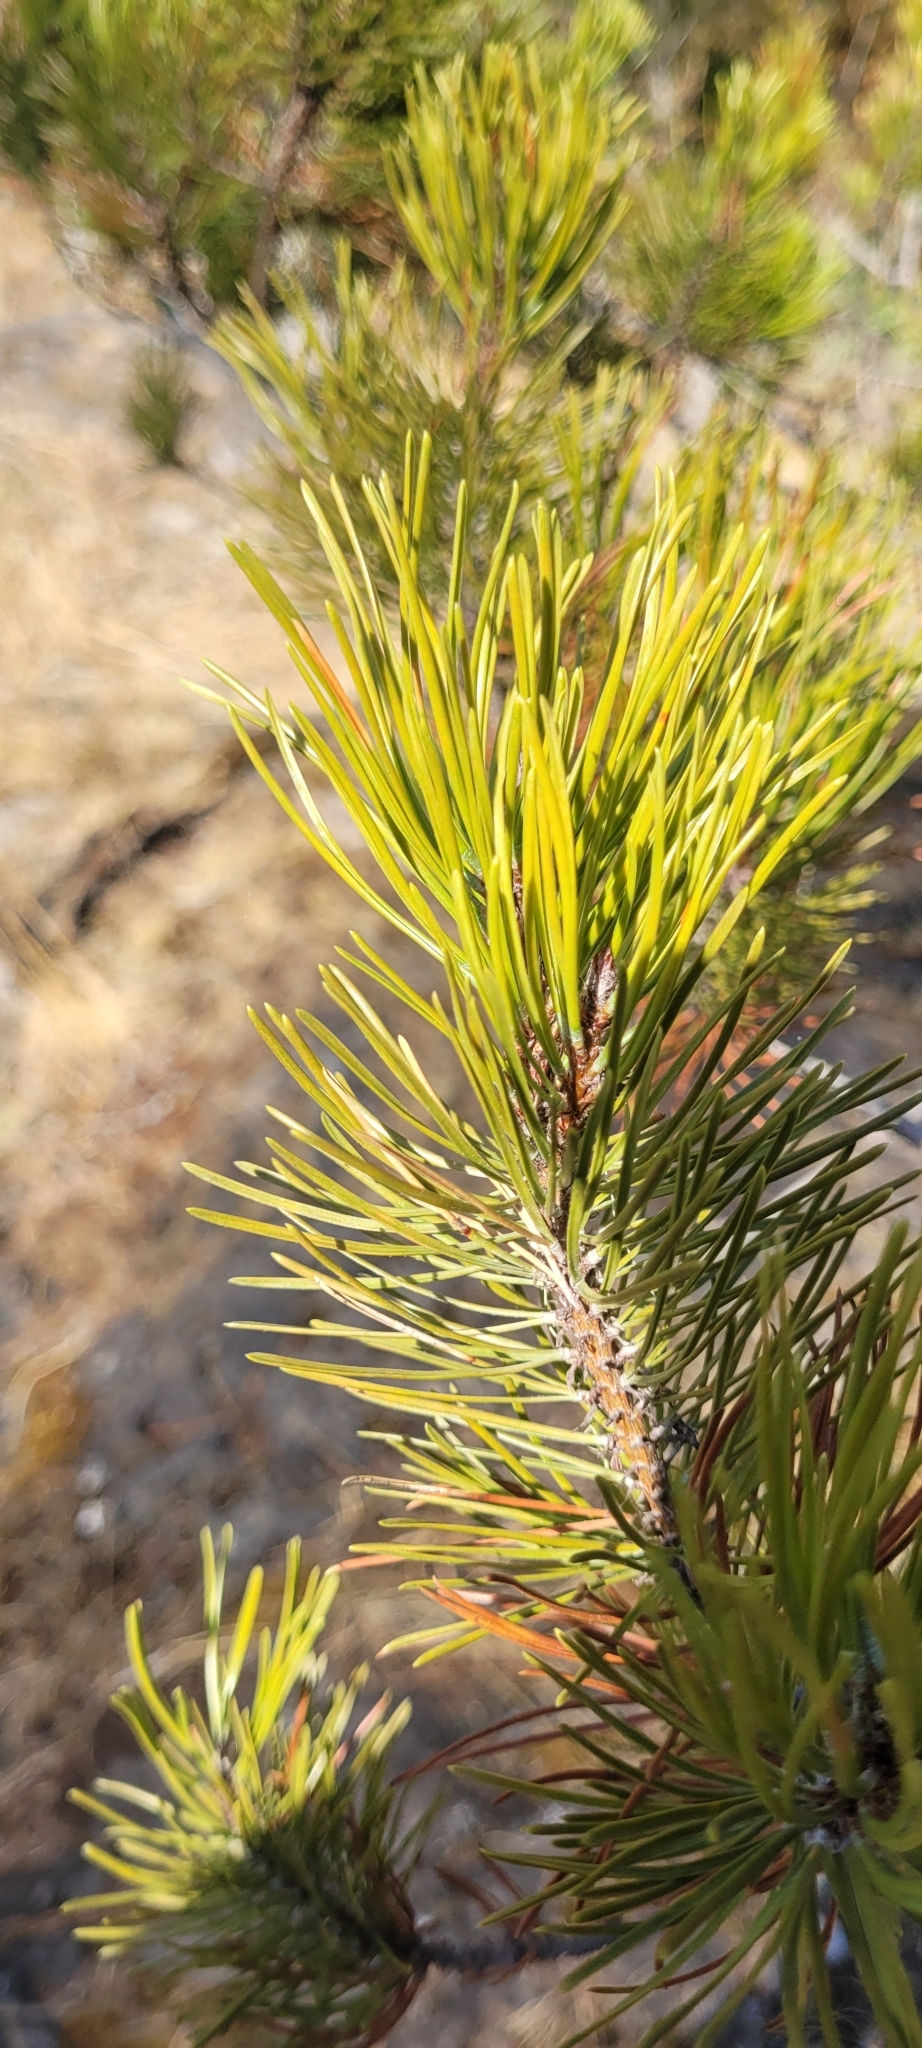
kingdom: Plantae
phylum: Tracheophyta
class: Pinopsida
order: Pinales
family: Pinaceae
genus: Pinus
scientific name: Pinus contorta
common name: Lodgepole pine
